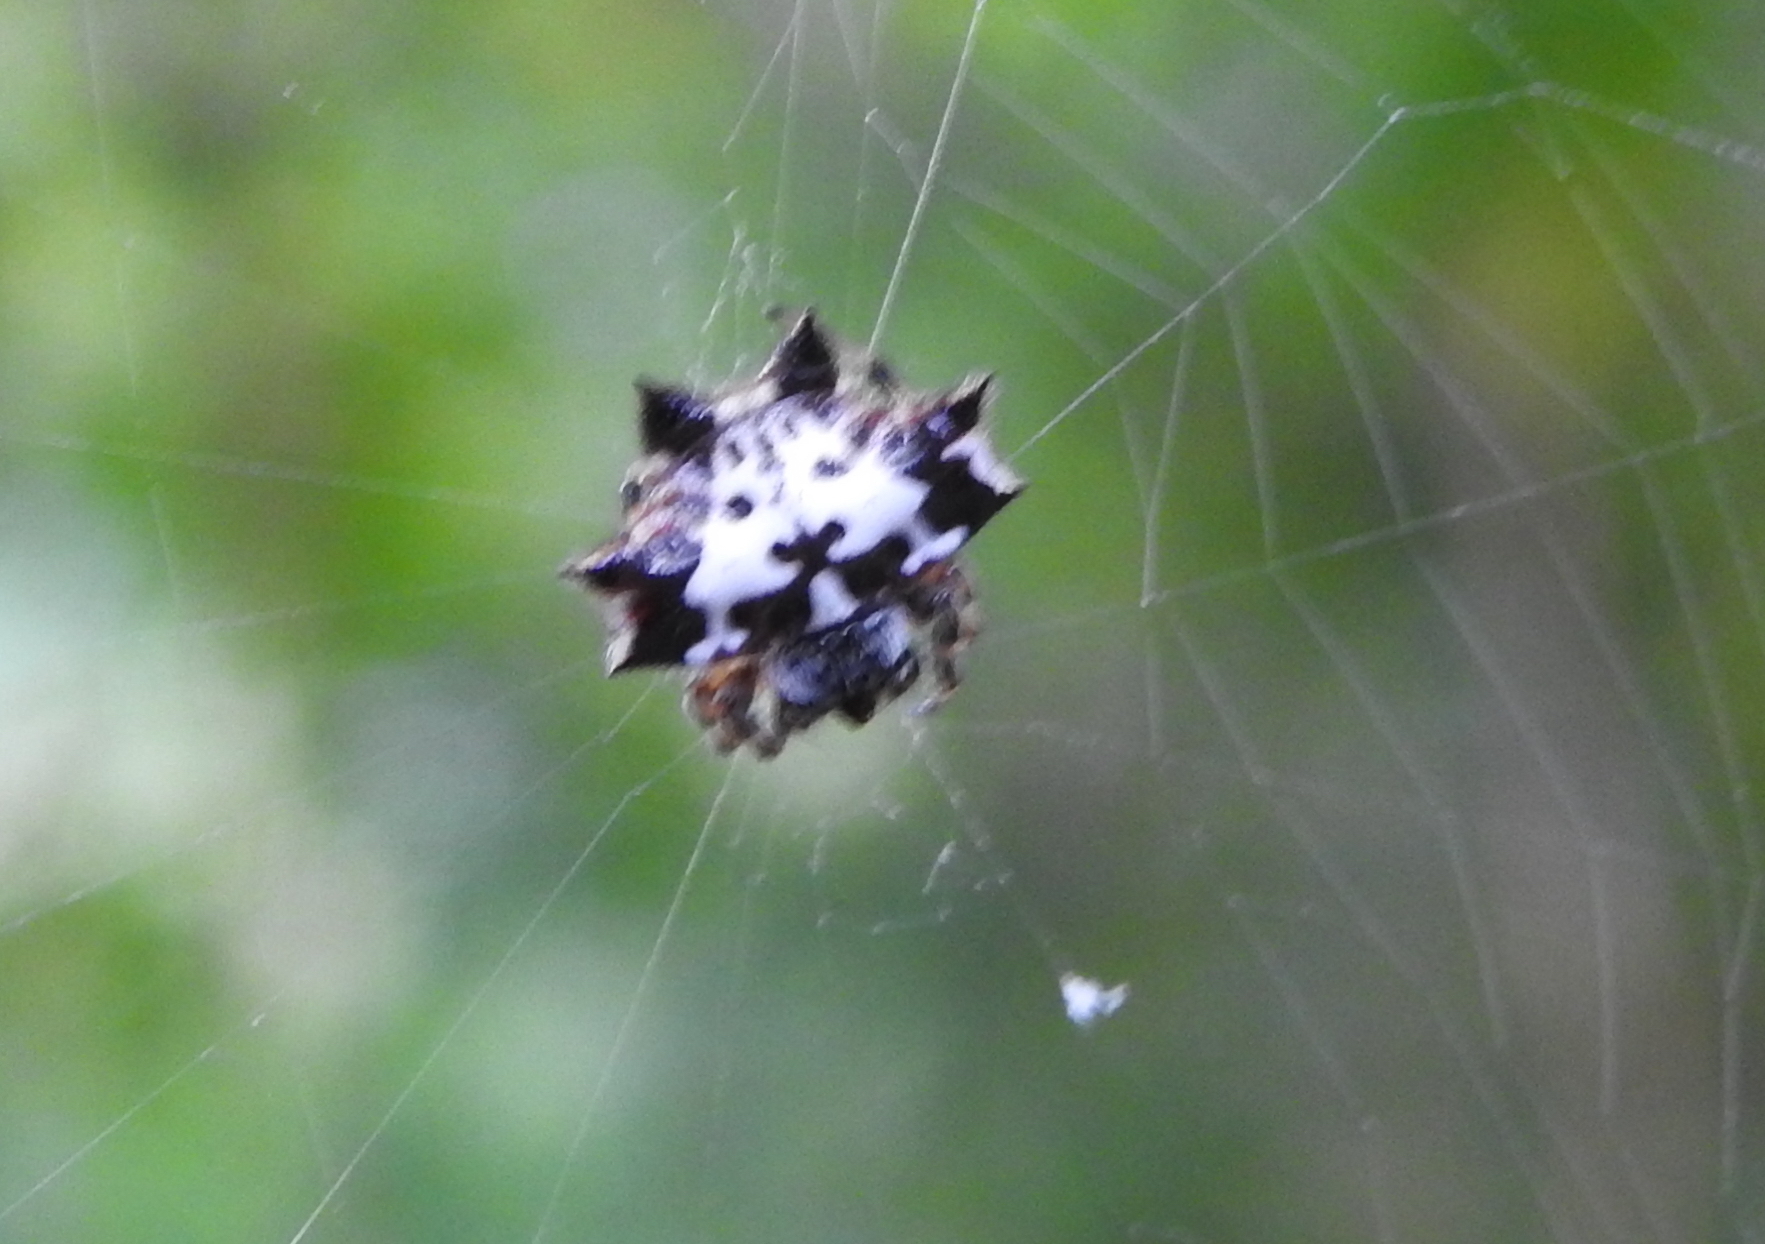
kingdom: Animalia
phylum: Arthropoda
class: Arachnida
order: Araneae
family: Araneidae
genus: Gasteracantha
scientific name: Gasteracantha kuhli
